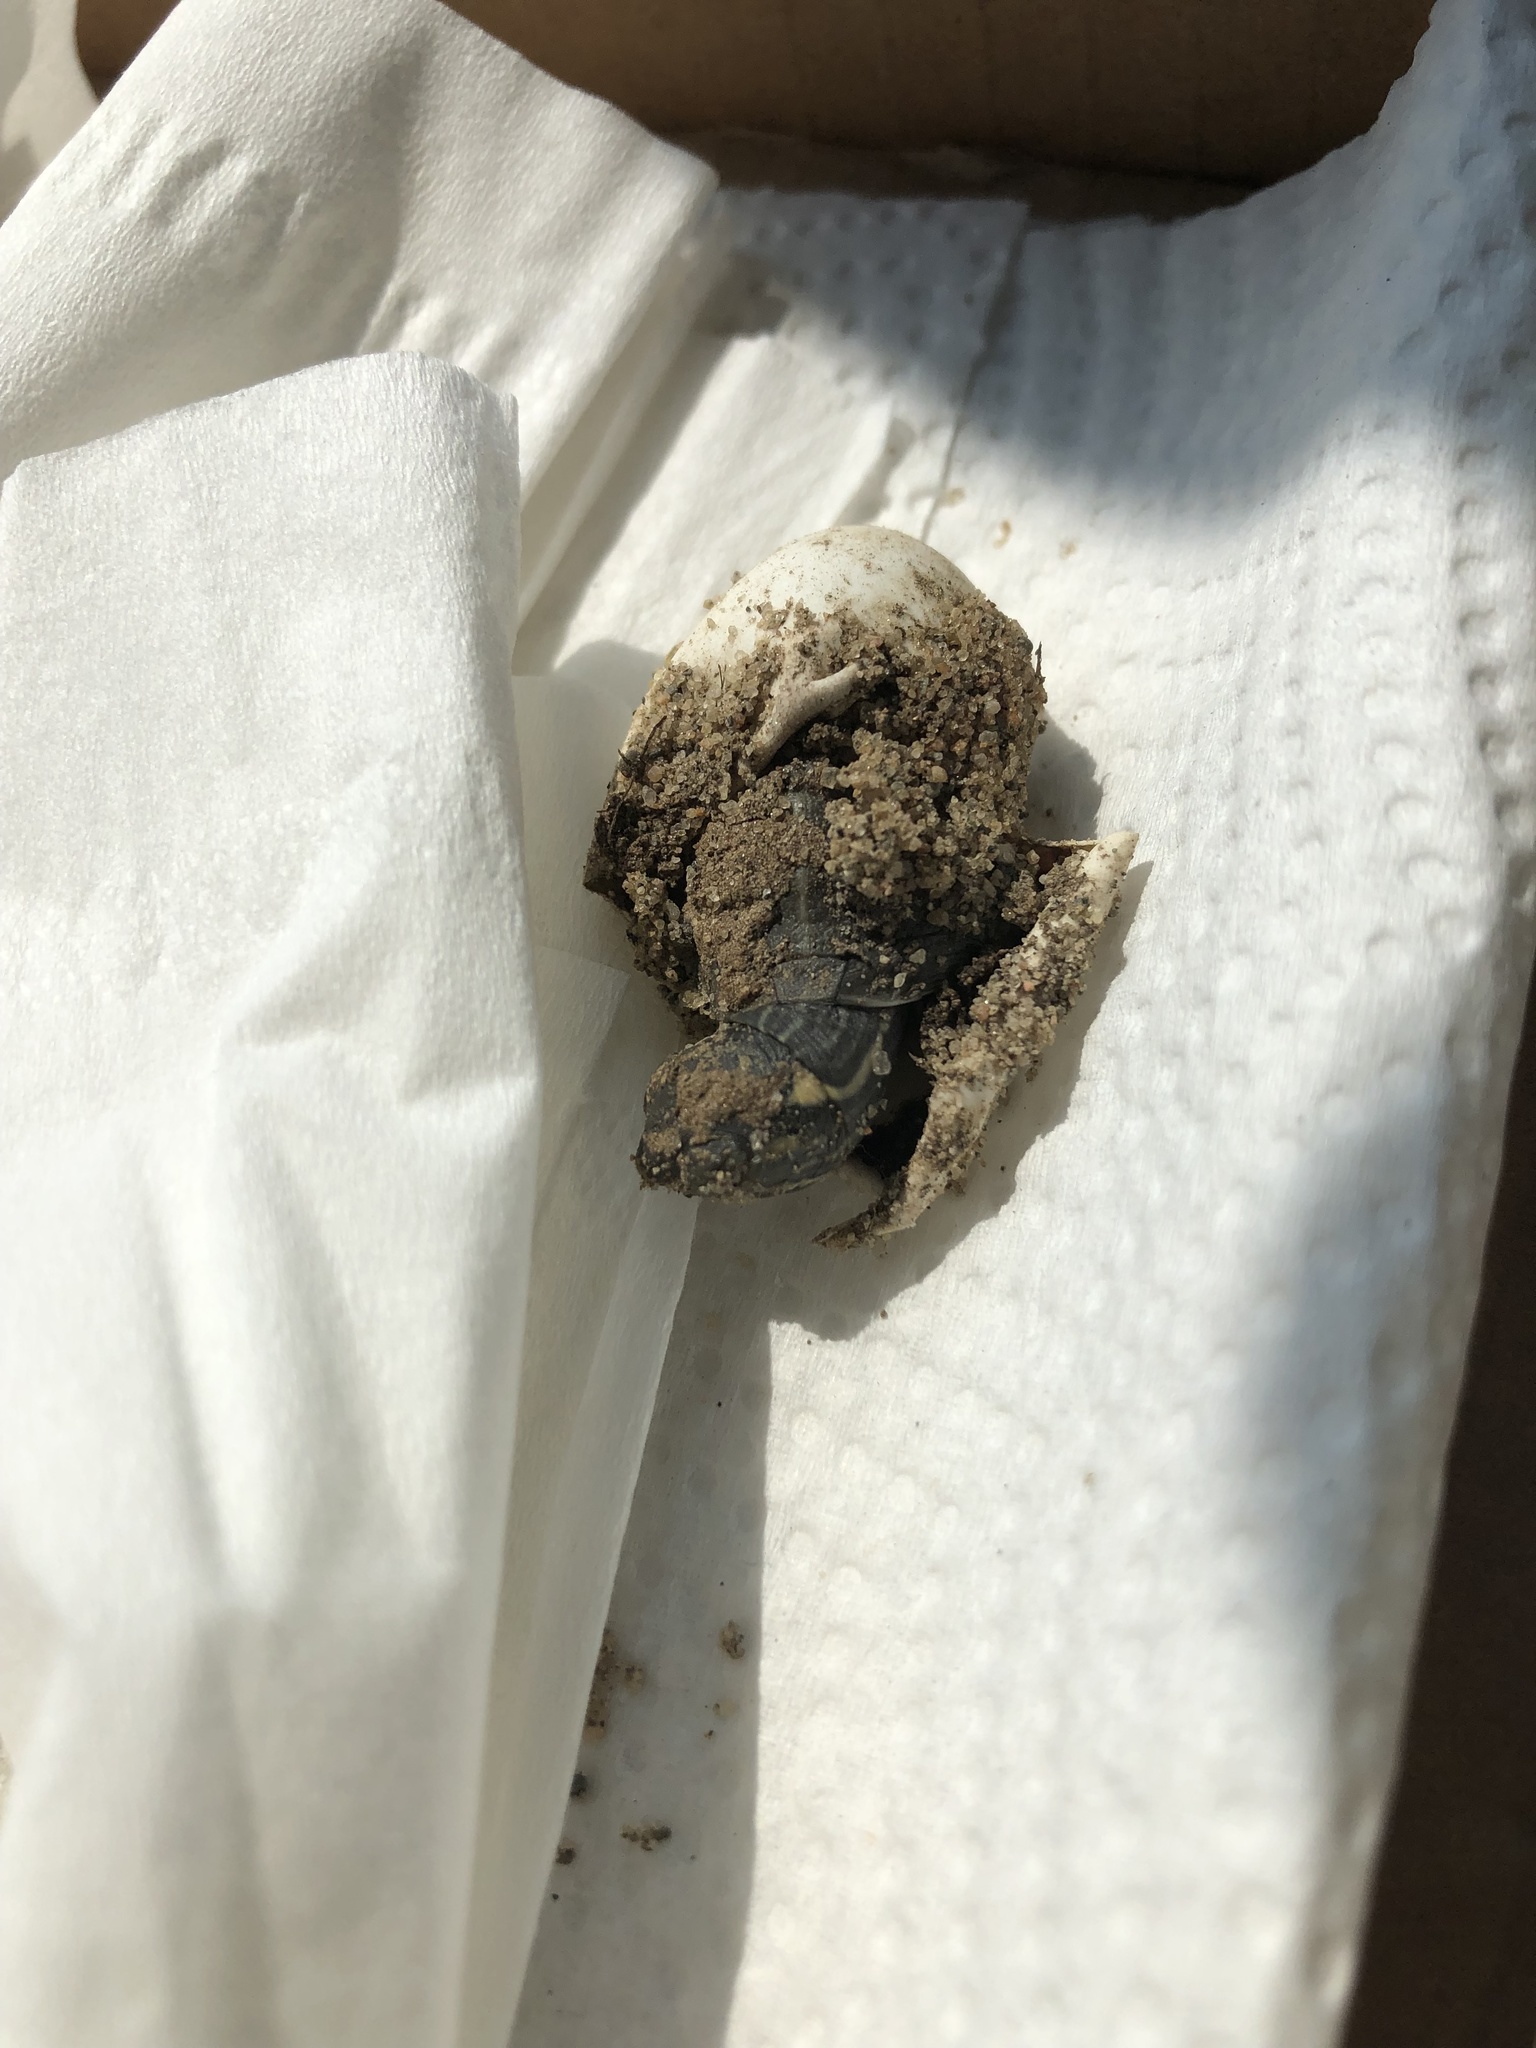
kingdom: Animalia
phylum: Chordata
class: Testudines
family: Emydidae
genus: Chrysemys
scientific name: Chrysemys picta
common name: Painted turtle
